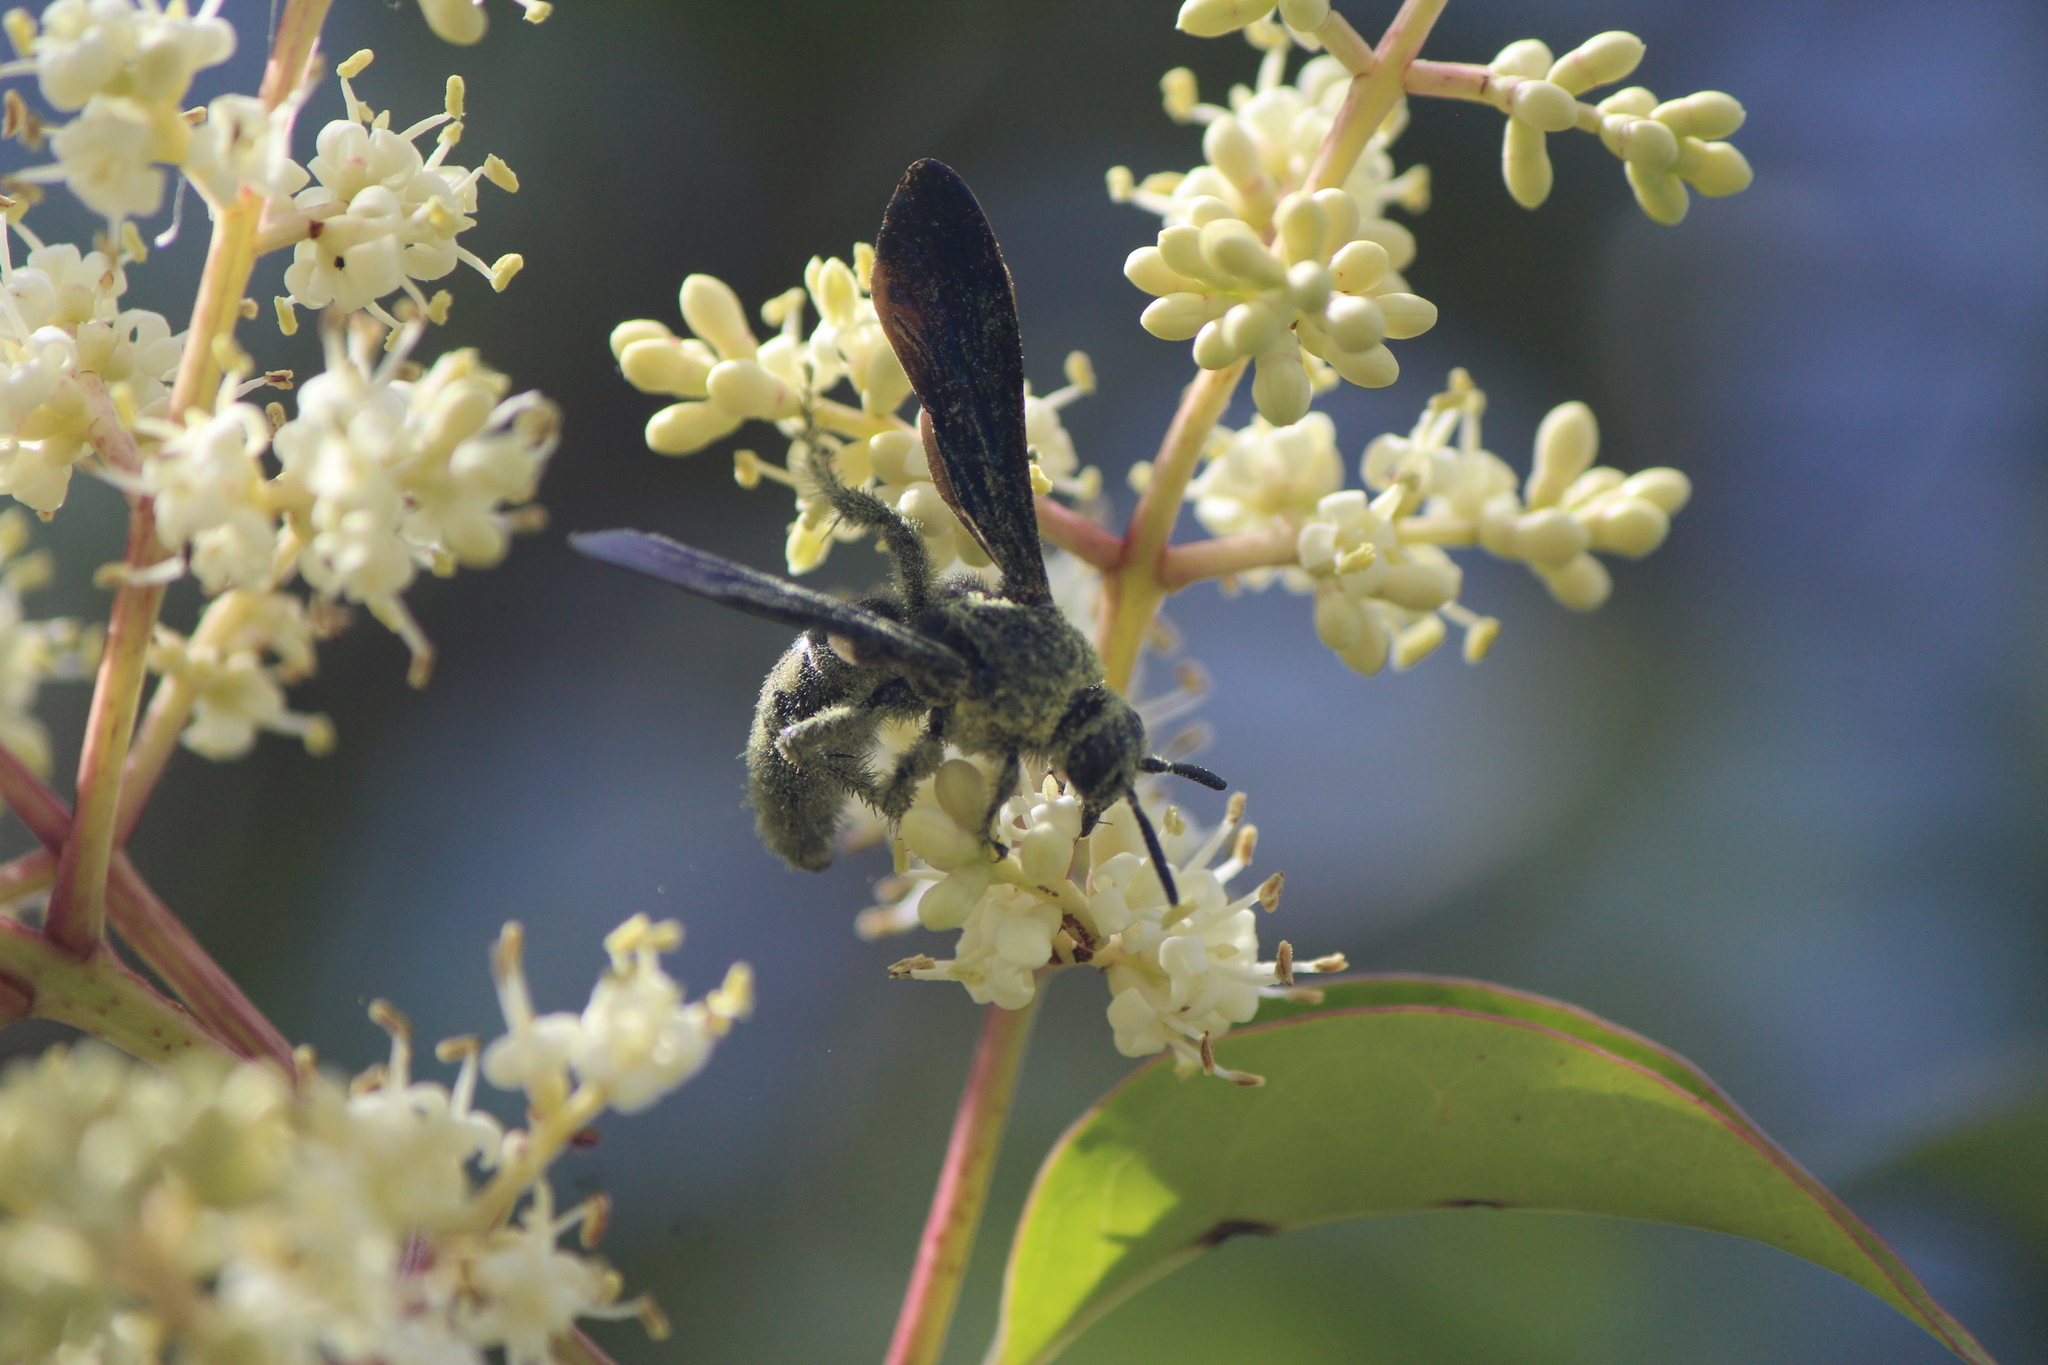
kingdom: Animalia
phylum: Arthropoda
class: Insecta
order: Hymenoptera
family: Scoliidae
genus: Scolia
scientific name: Scolia guttata
